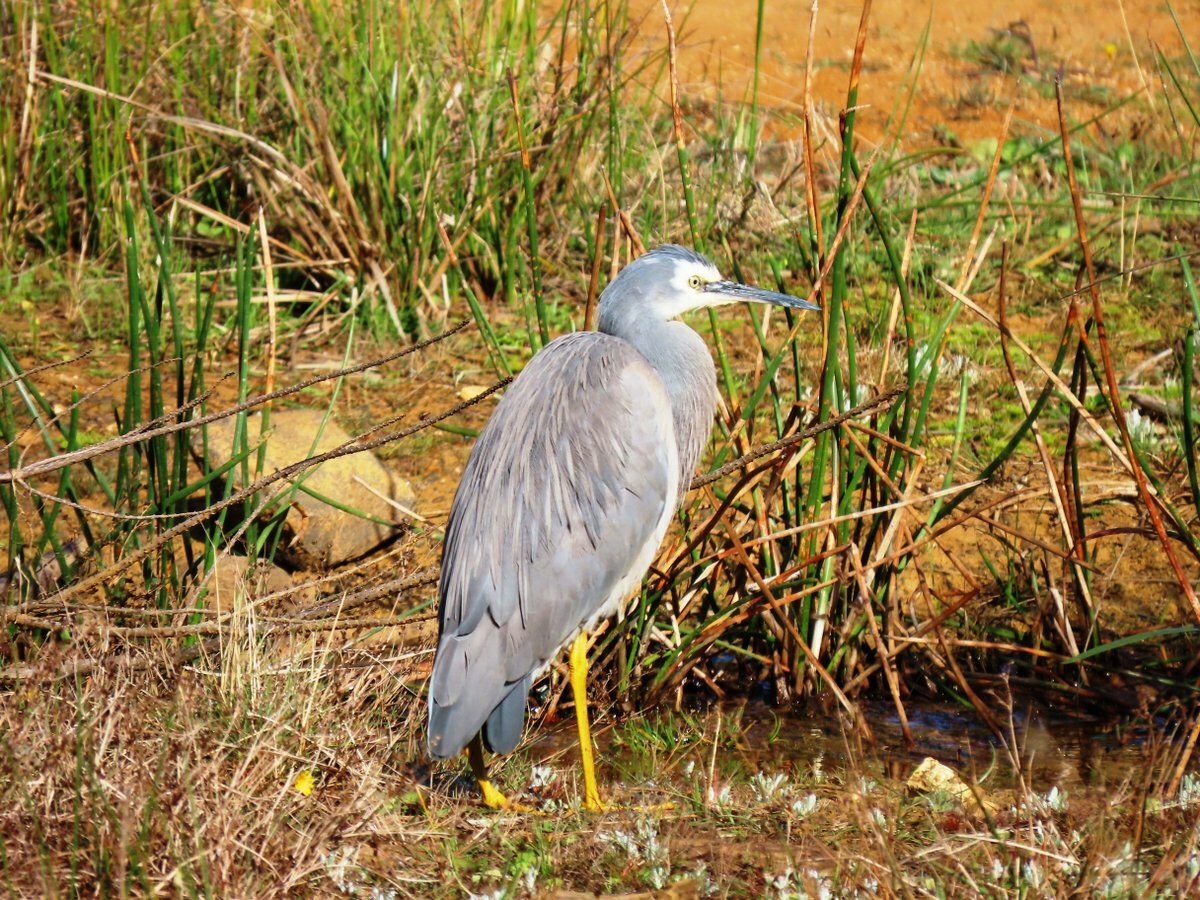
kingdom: Animalia
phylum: Chordata
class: Aves
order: Pelecaniformes
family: Ardeidae
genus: Egretta
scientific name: Egretta novaehollandiae
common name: White-faced heron
